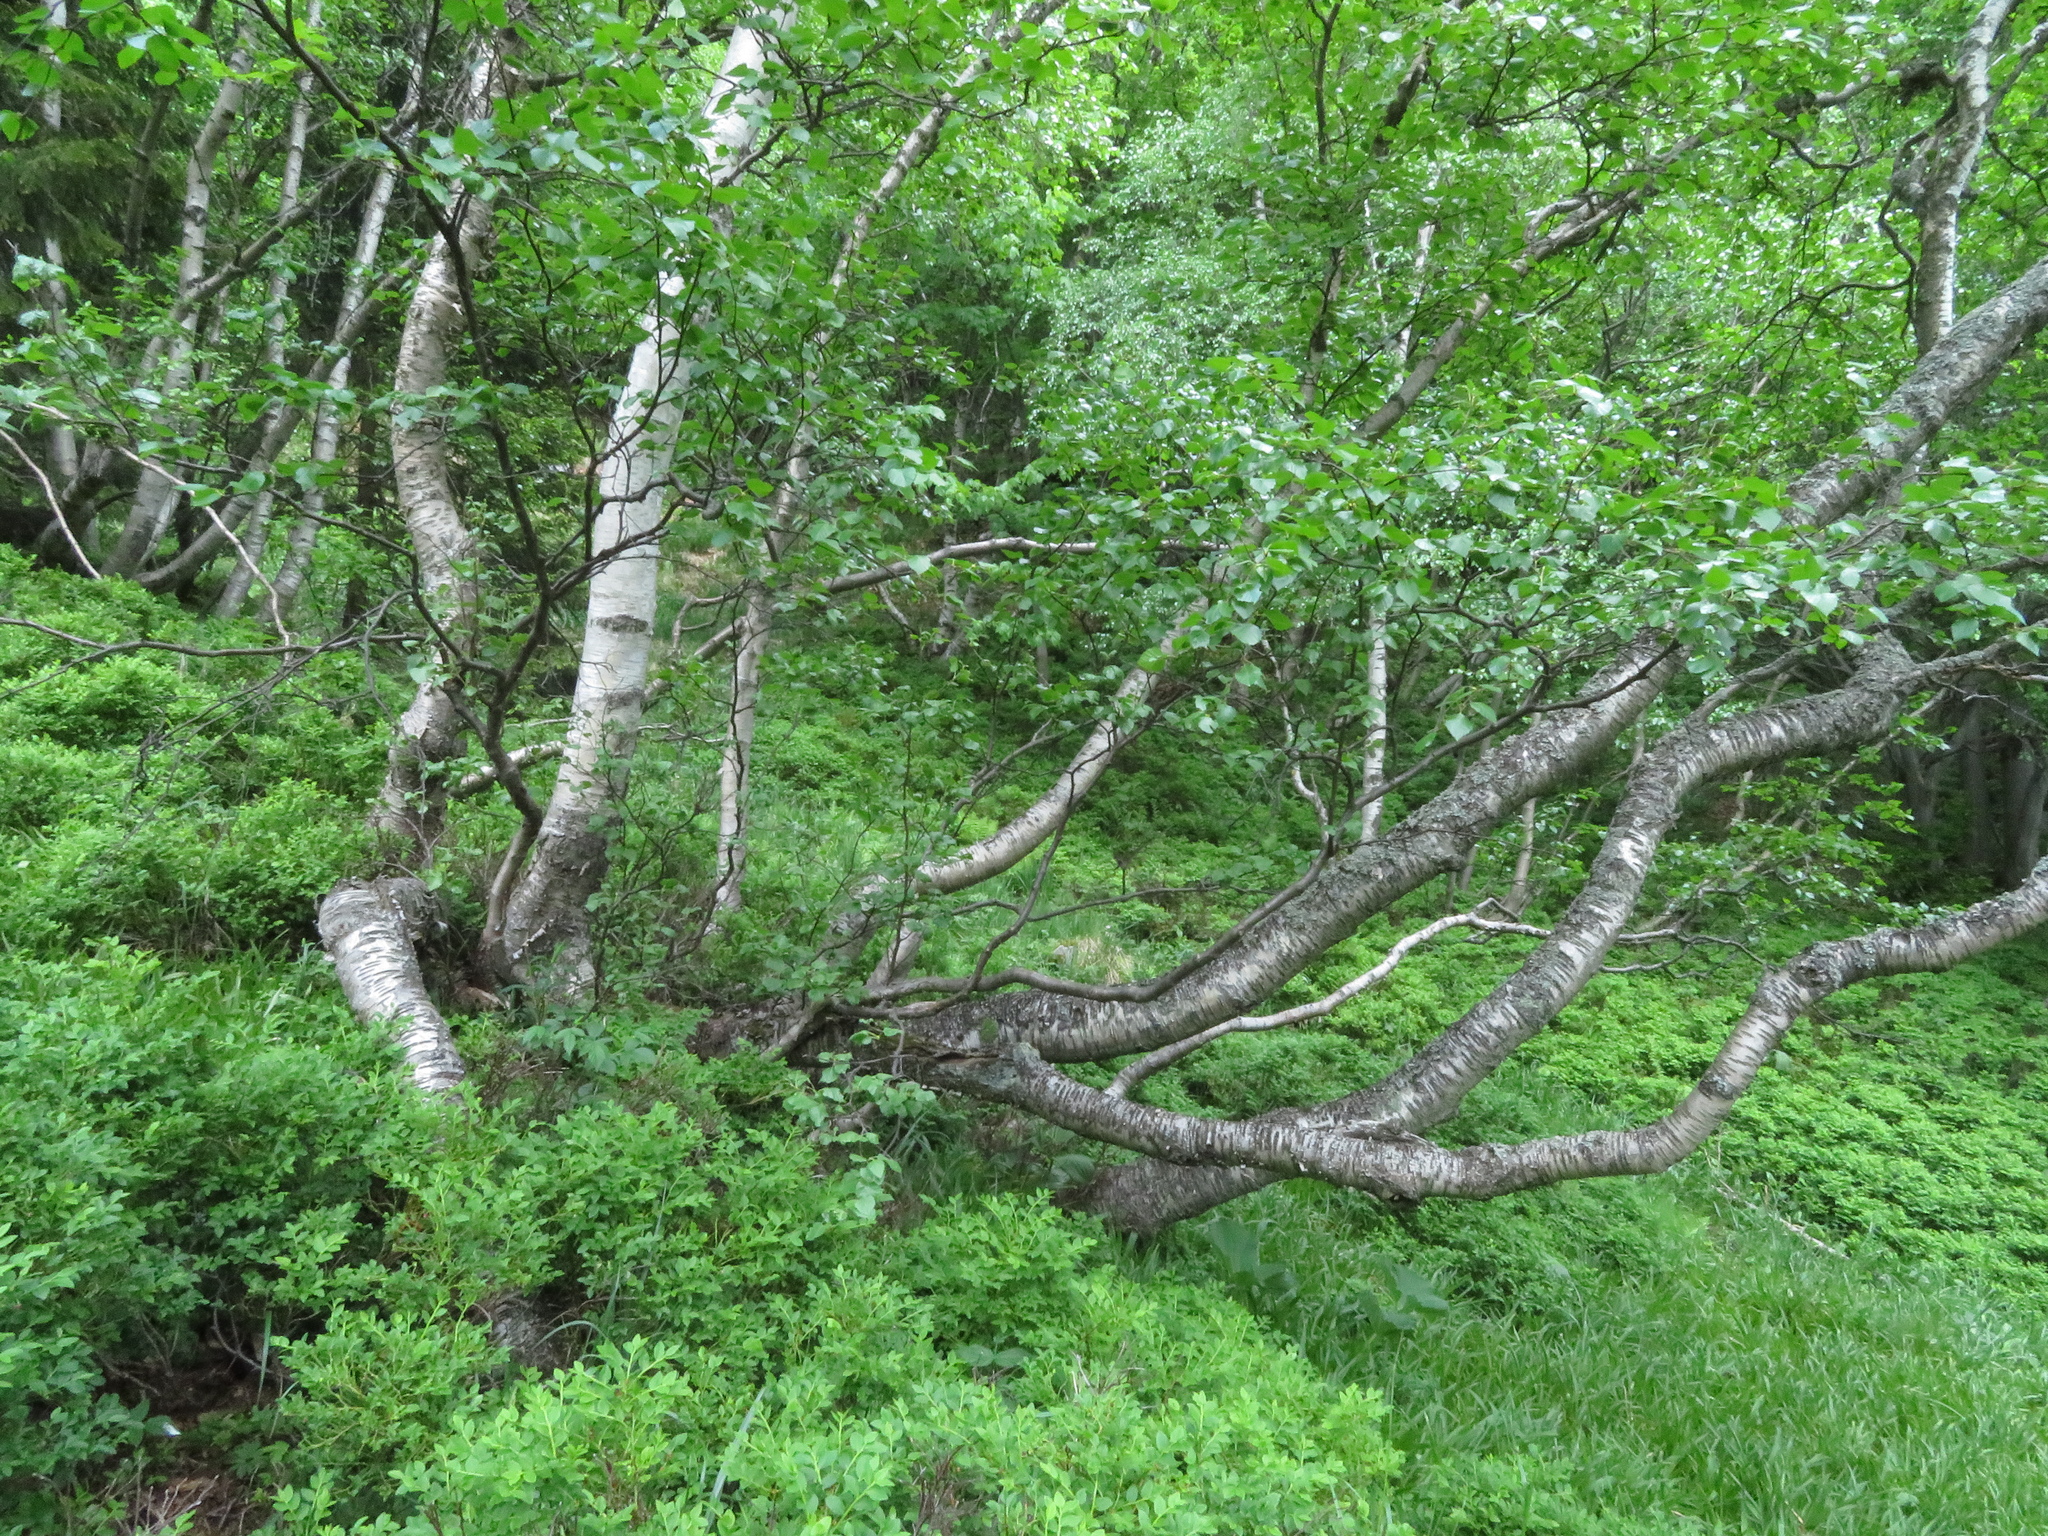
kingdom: Plantae
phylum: Tracheophyta
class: Magnoliopsida
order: Fagales
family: Betulaceae
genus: Betula
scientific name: Betula pubescens
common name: Downy birch
